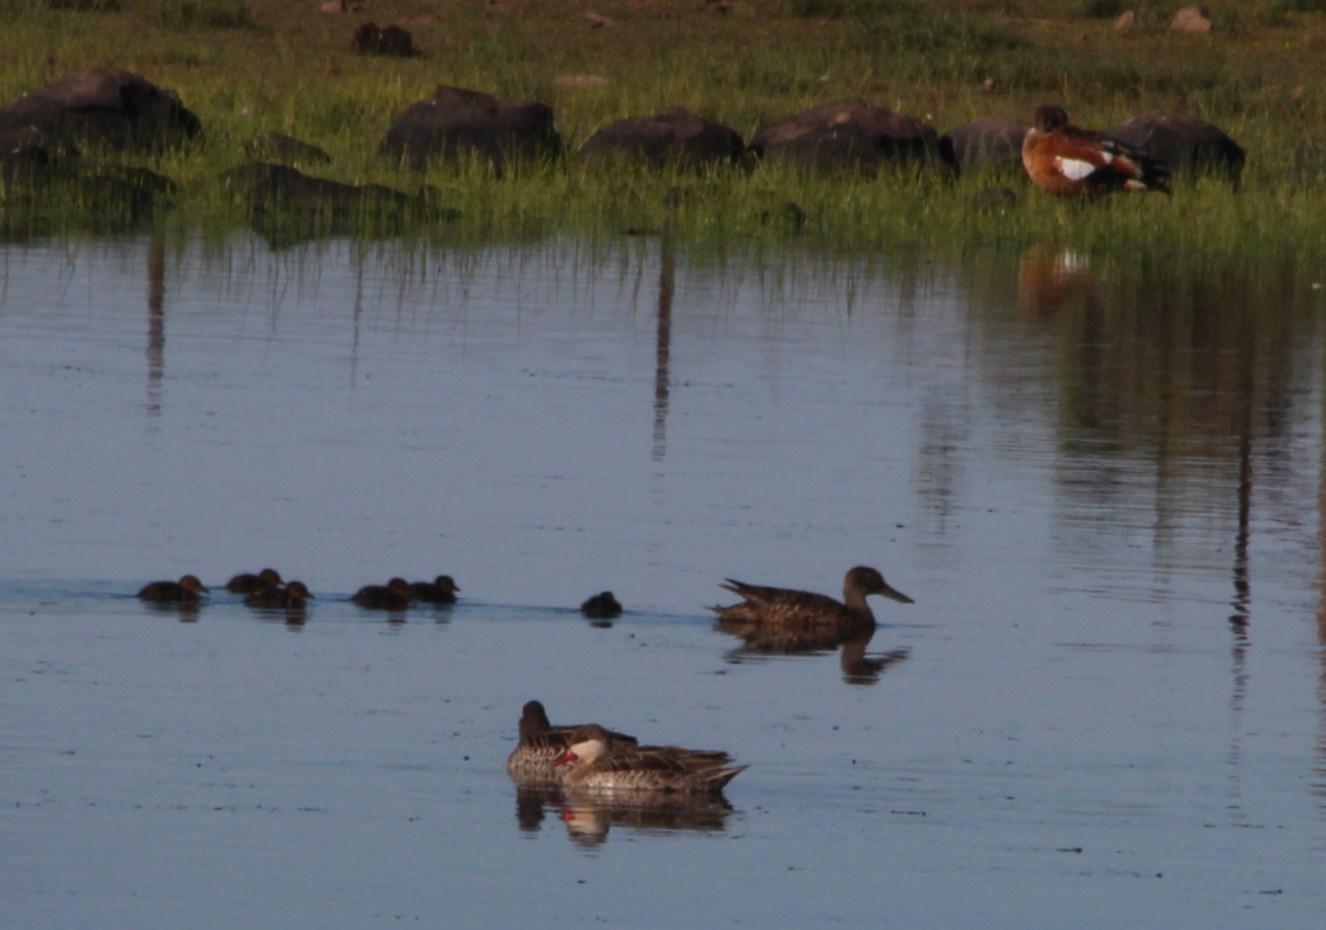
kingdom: Animalia
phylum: Chordata
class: Aves
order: Anseriformes
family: Anatidae
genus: Anas
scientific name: Anas erythrorhyncha
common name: Red-billed teal
